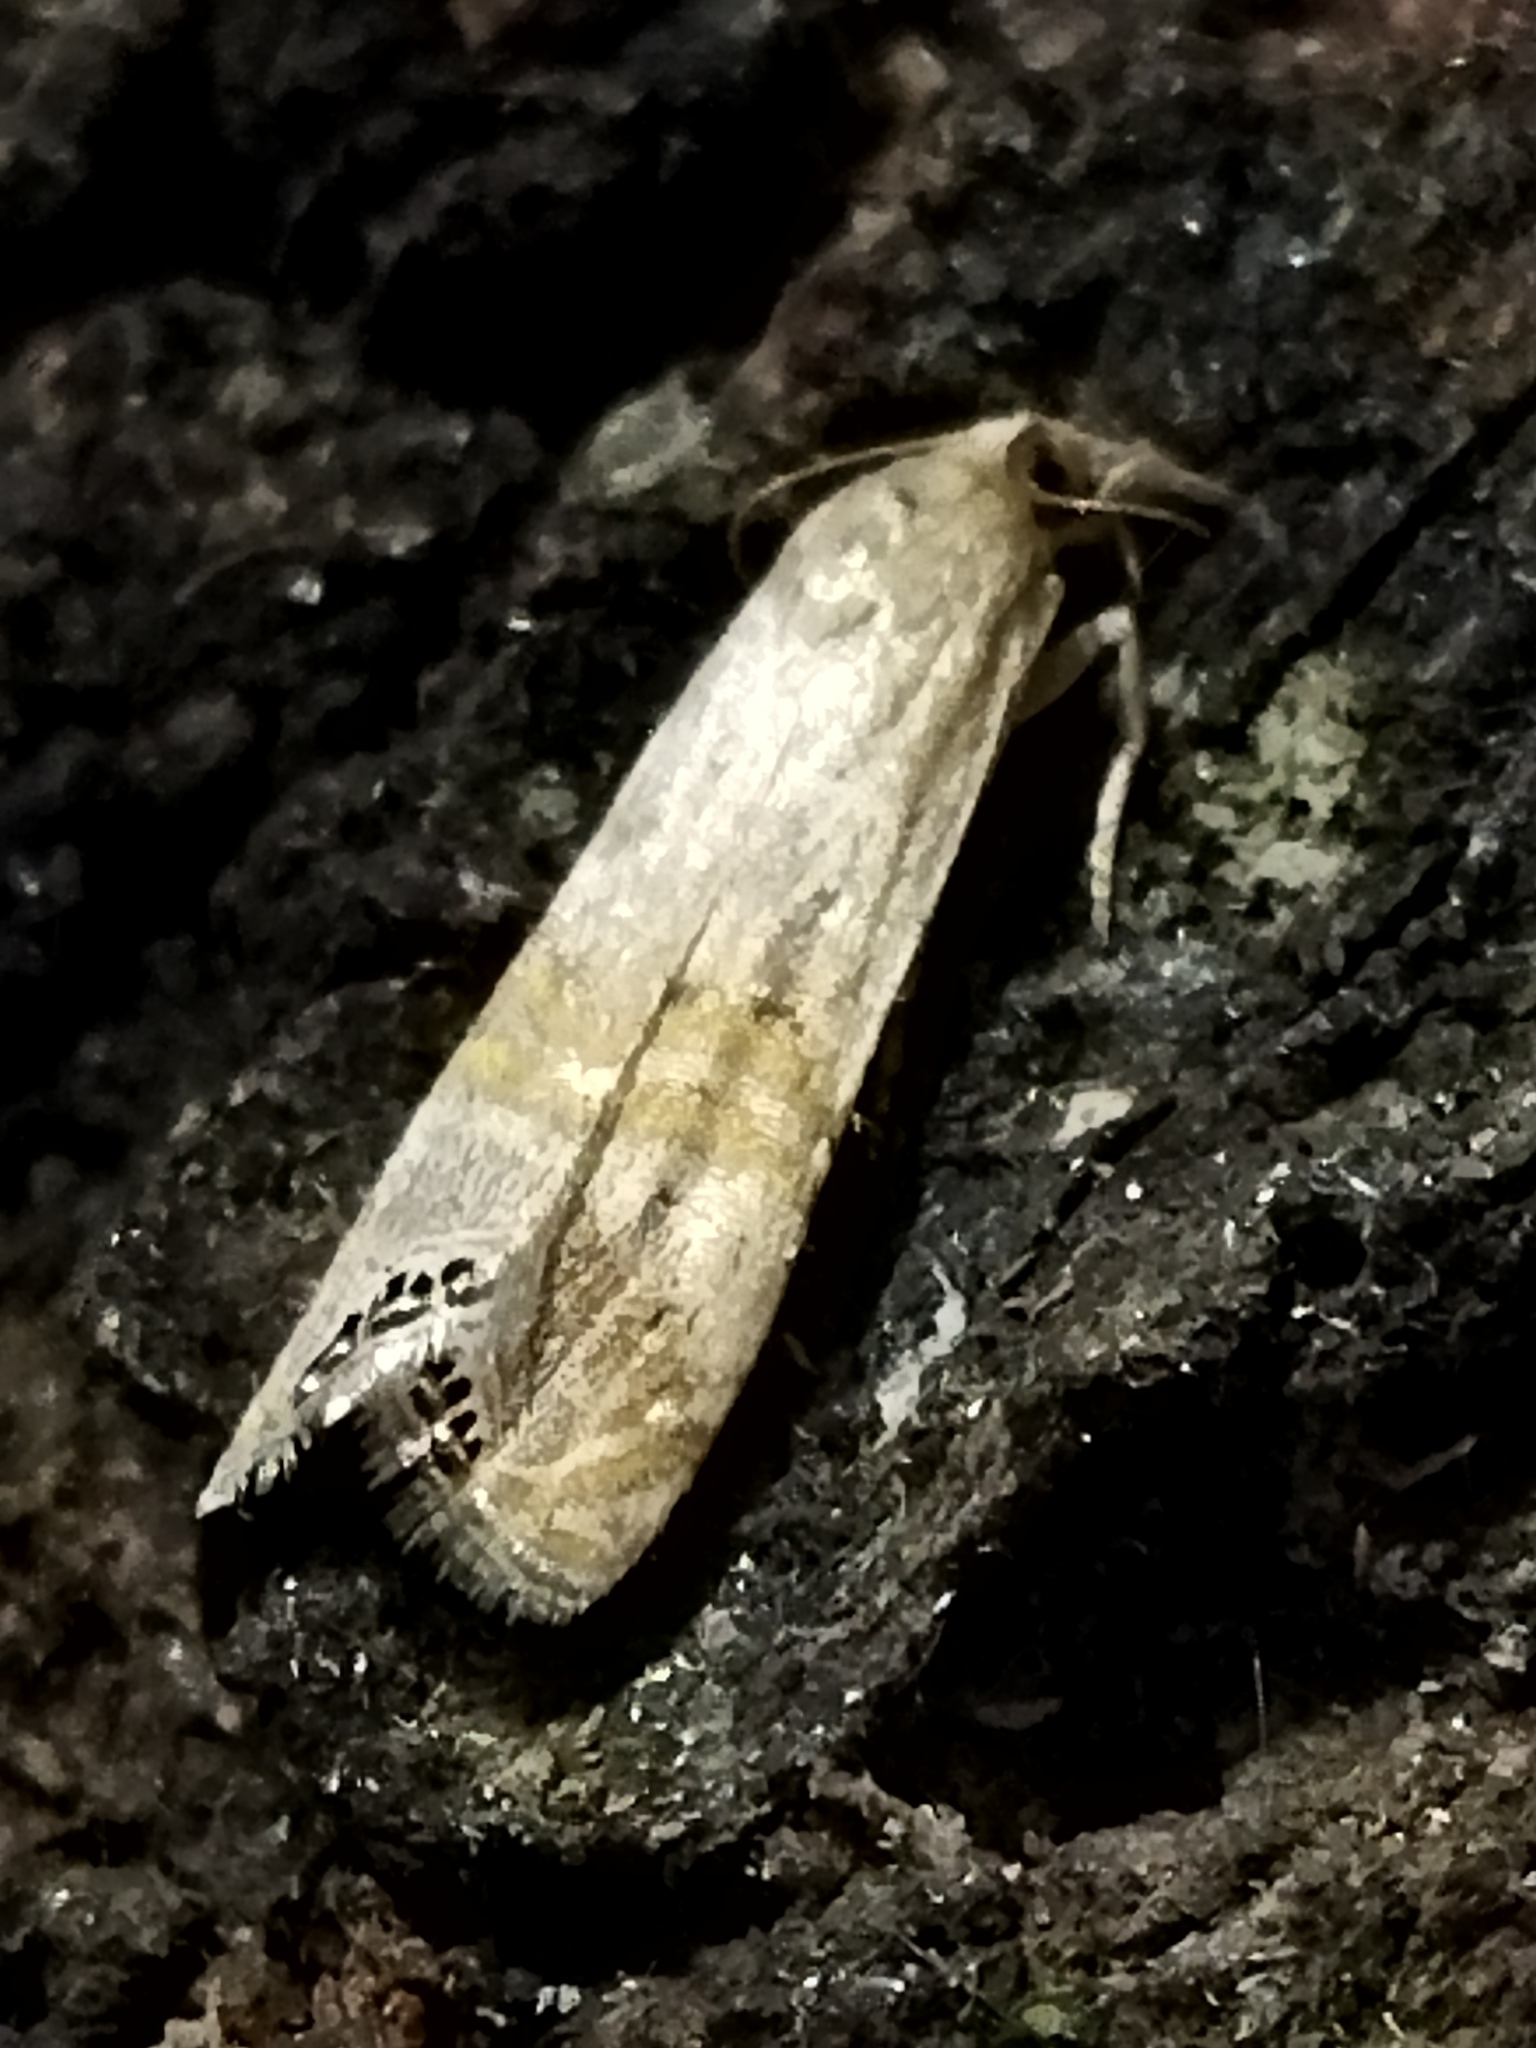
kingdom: Animalia
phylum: Arthropoda
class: Insecta
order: Lepidoptera
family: Crambidae
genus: Euchromius
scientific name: Euchromius ocellea
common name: Necklace veneer moth
